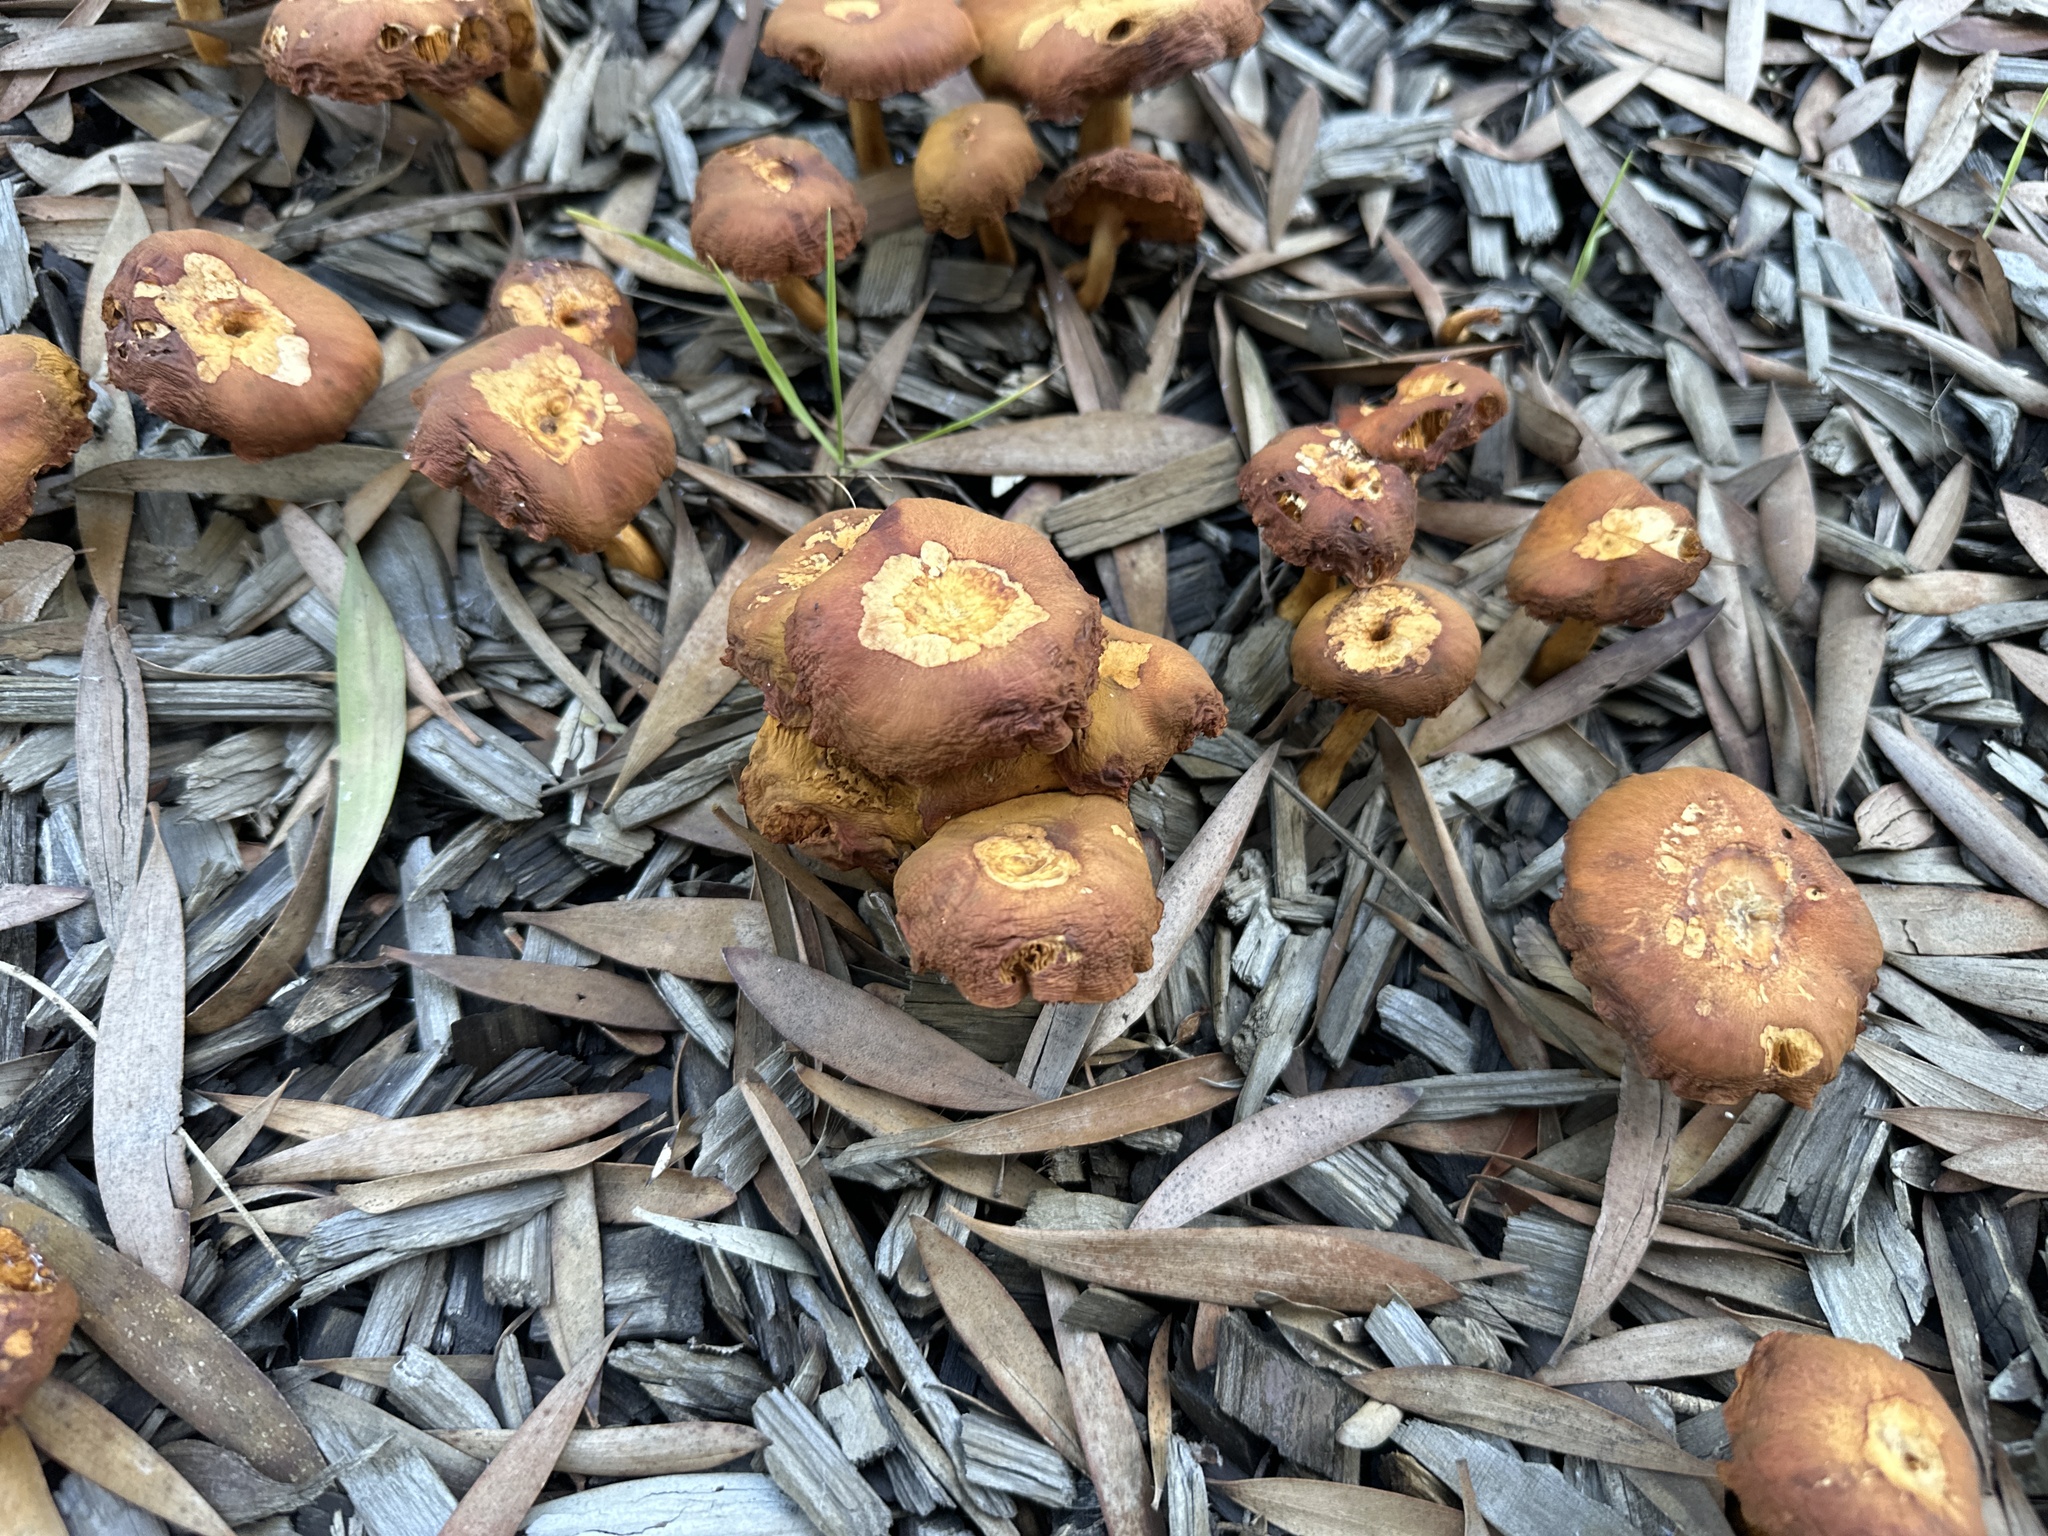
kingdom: Fungi
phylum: Basidiomycota
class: Agaricomycetes
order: Agaricales
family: Hymenogastraceae
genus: Gymnopilus
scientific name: Gymnopilus aurantiophyllus
